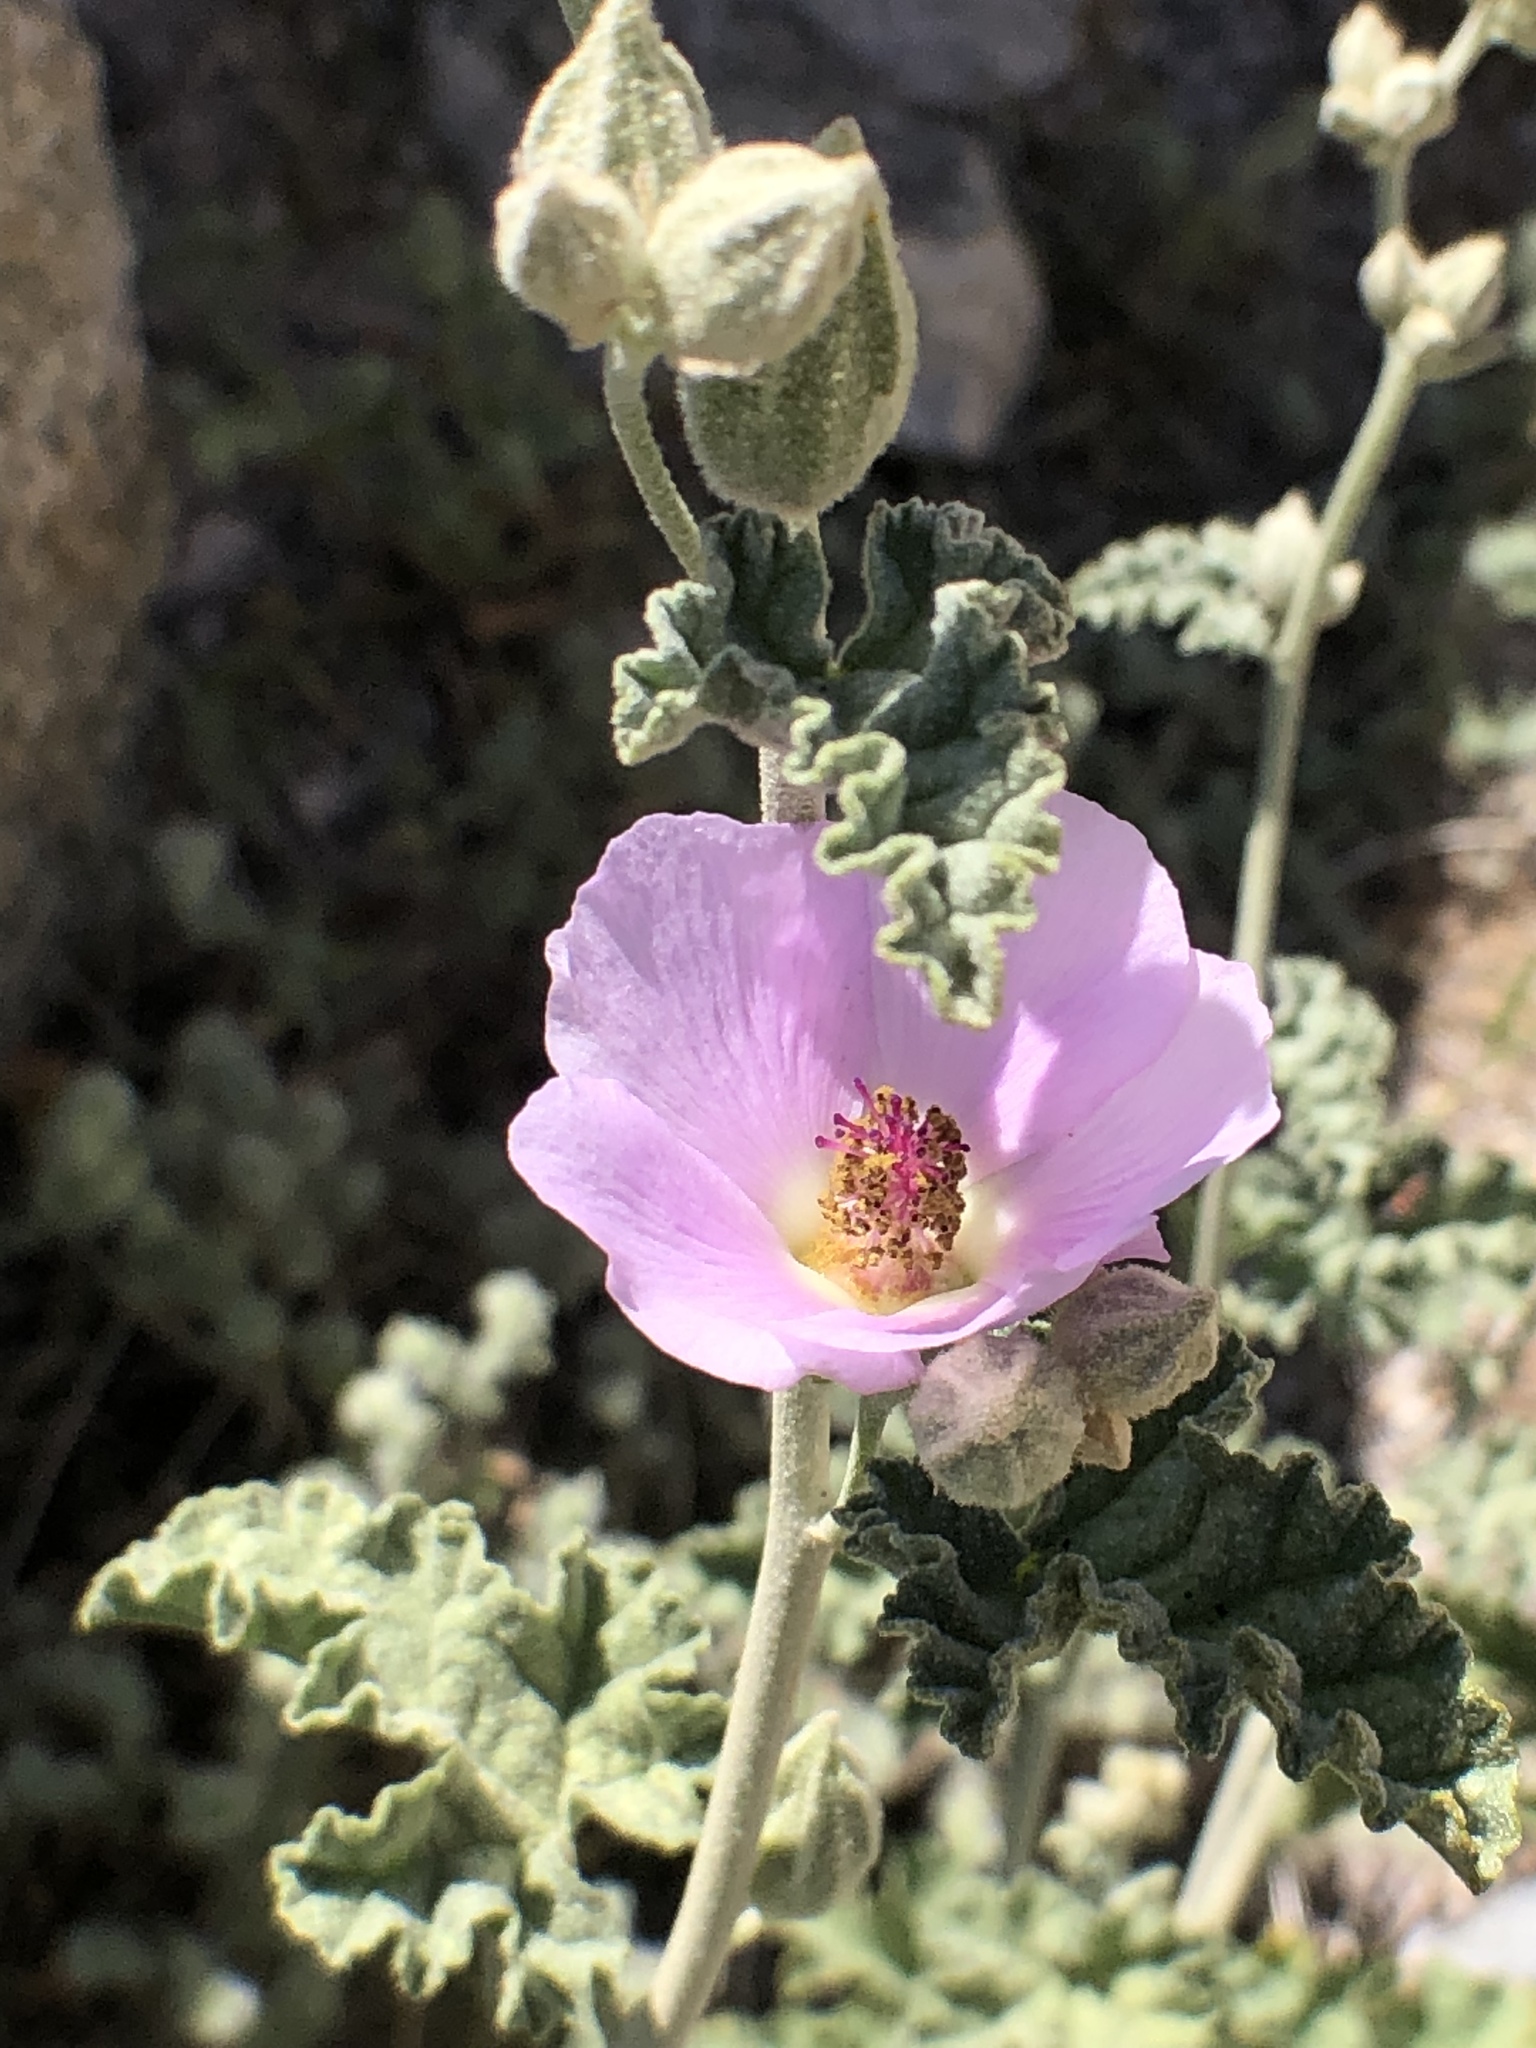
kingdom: Plantae
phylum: Tracheophyta
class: Magnoliopsida
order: Malvales
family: Malvaceae
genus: Sphaeralcea
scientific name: Sphaeralcea ambigua
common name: Apricot globe-mallow
